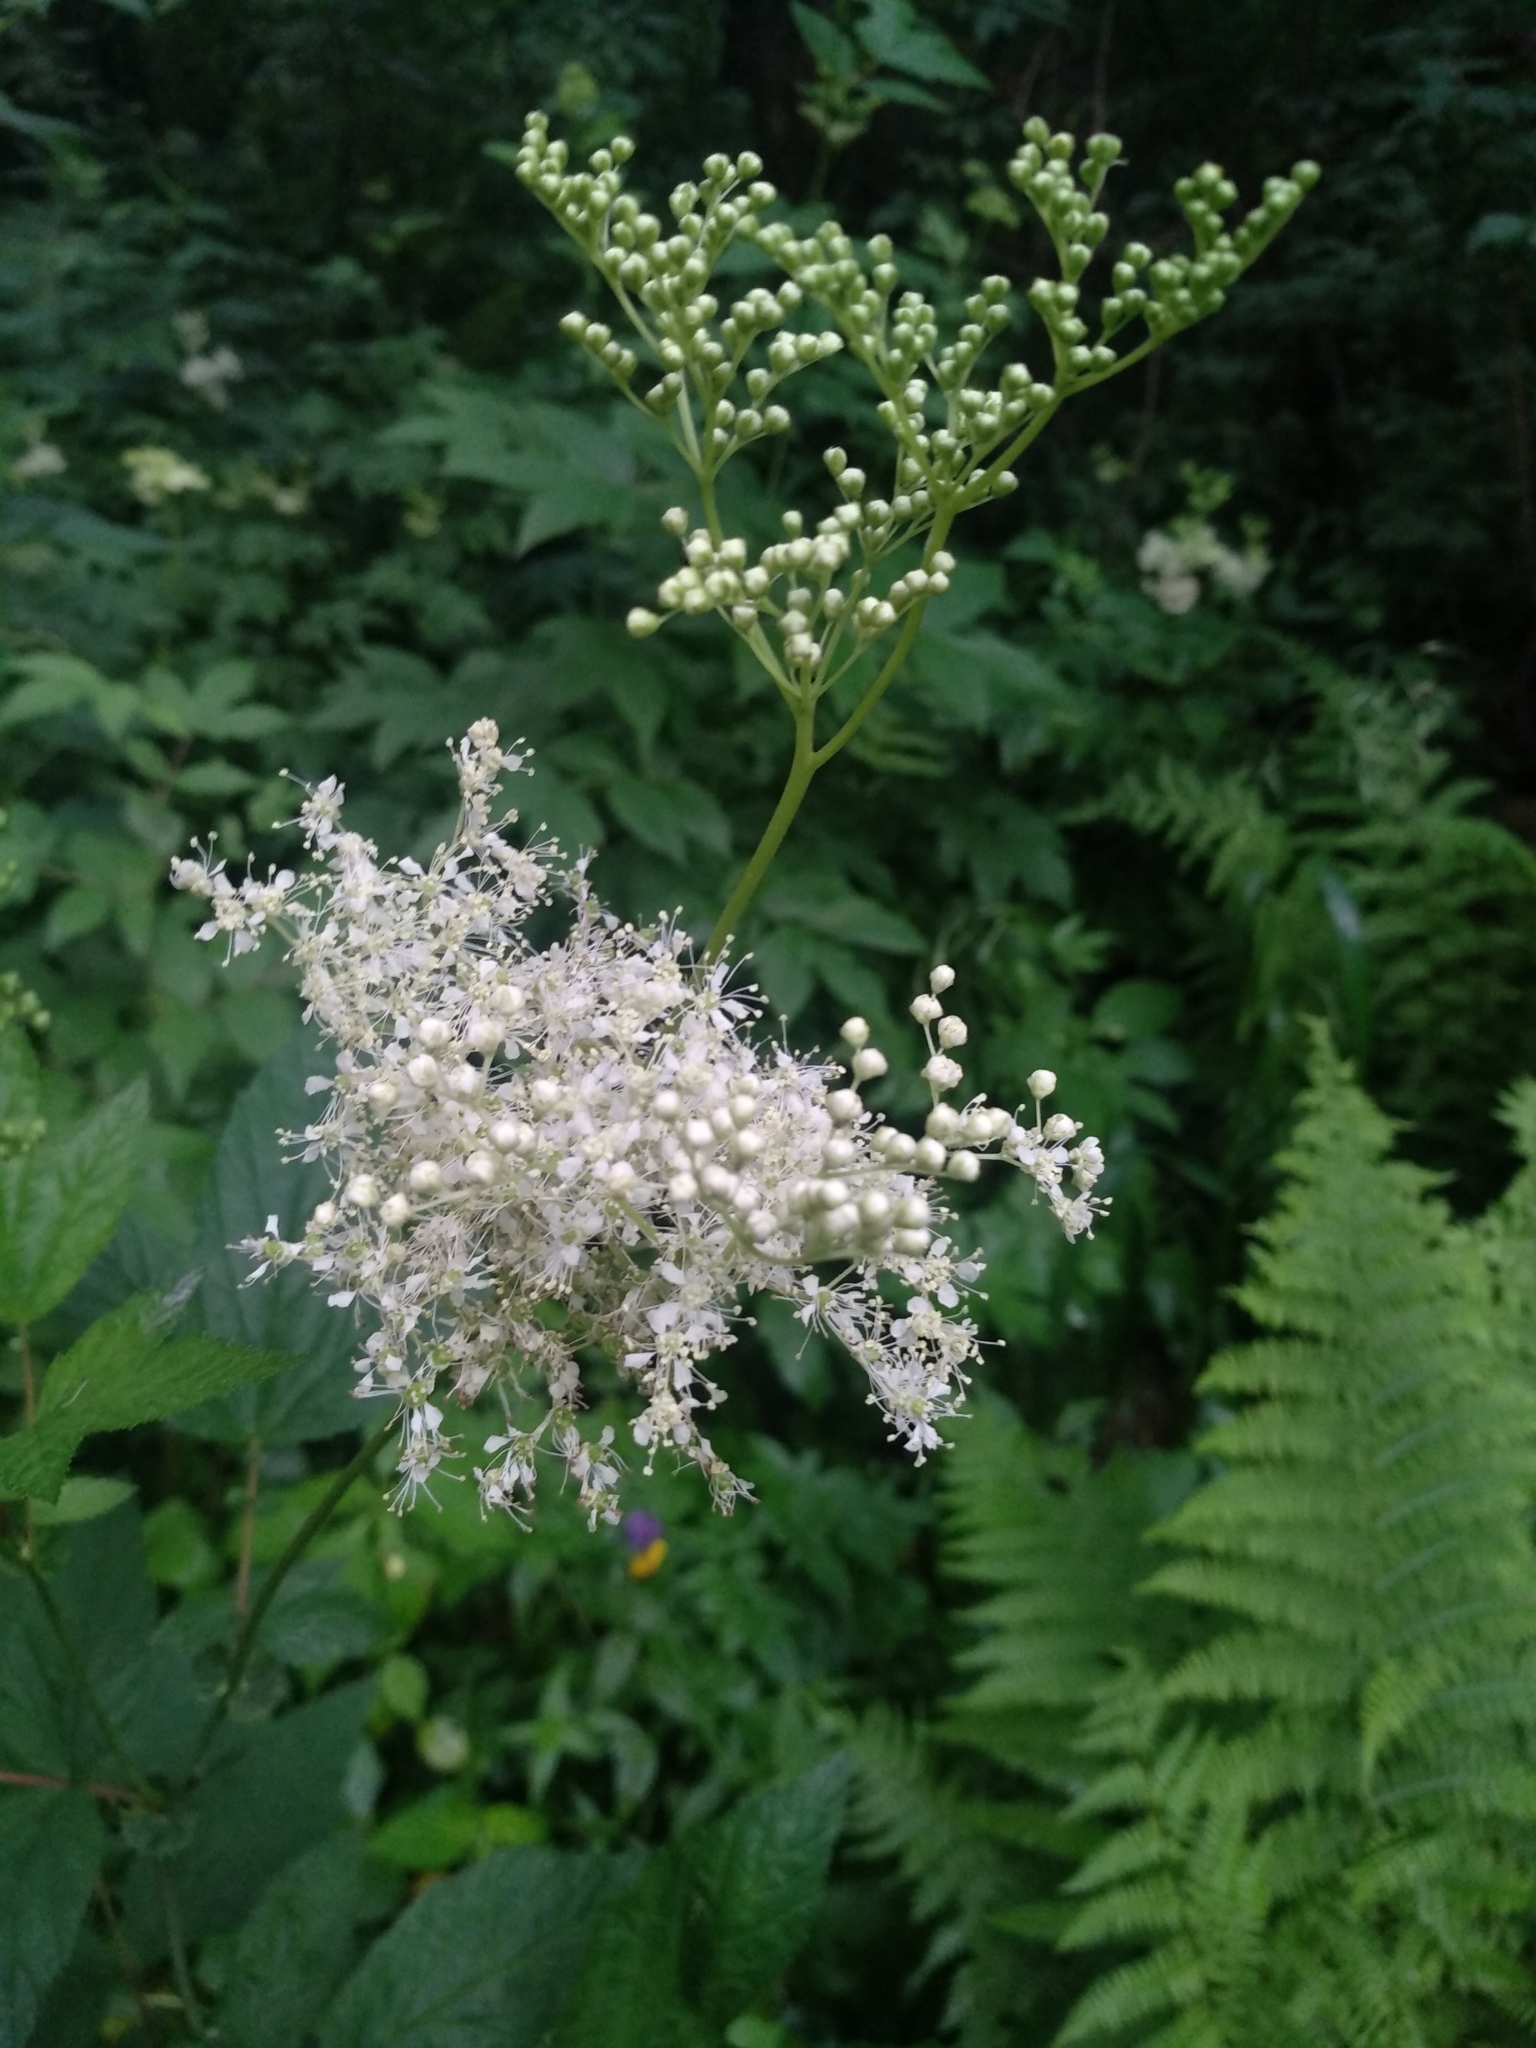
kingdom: Plantae
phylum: Tracheophyta
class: Magnoliopsida
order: Rosales
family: Rosaceae
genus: Filipendula
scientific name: Filipendula ulmaria
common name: Meadowsweet
